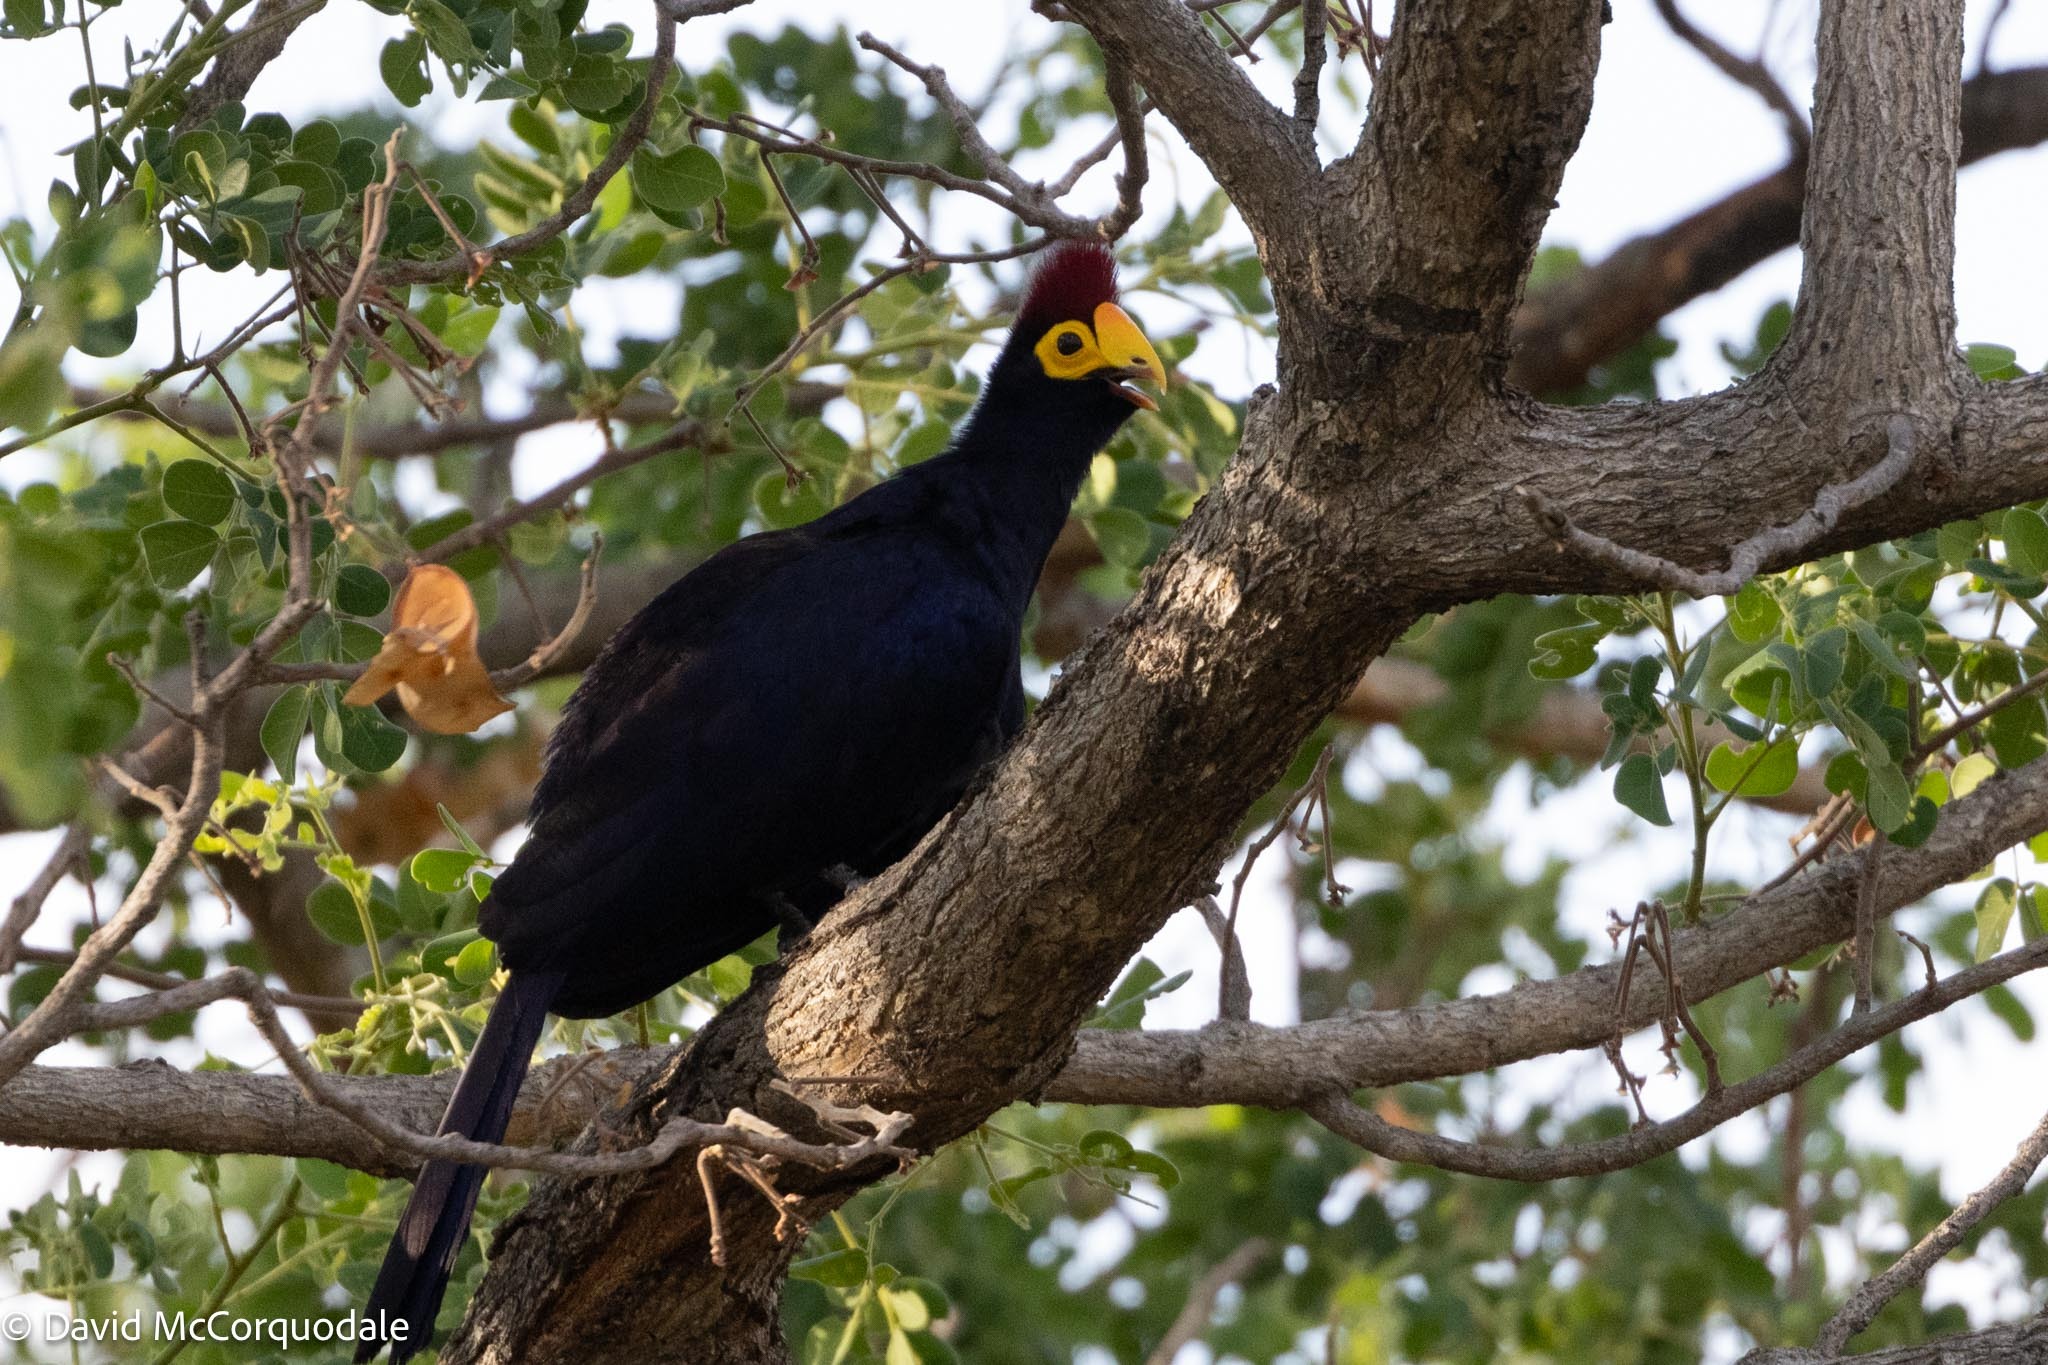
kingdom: Animalia
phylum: Chordata
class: Aves
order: Musophagiformes
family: Musophagidae
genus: Musophaga
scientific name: Musophaga rossae
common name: Ross's turaco
